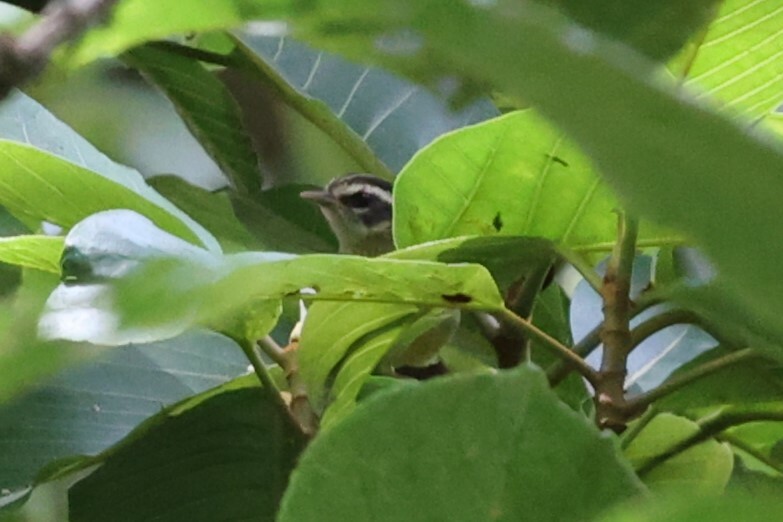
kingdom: Animalia
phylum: Chordata
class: Aves
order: Passeriformes
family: Parulidae
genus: Basileuterus
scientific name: Basileuterus tristriatus
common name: Three-striped warbler
